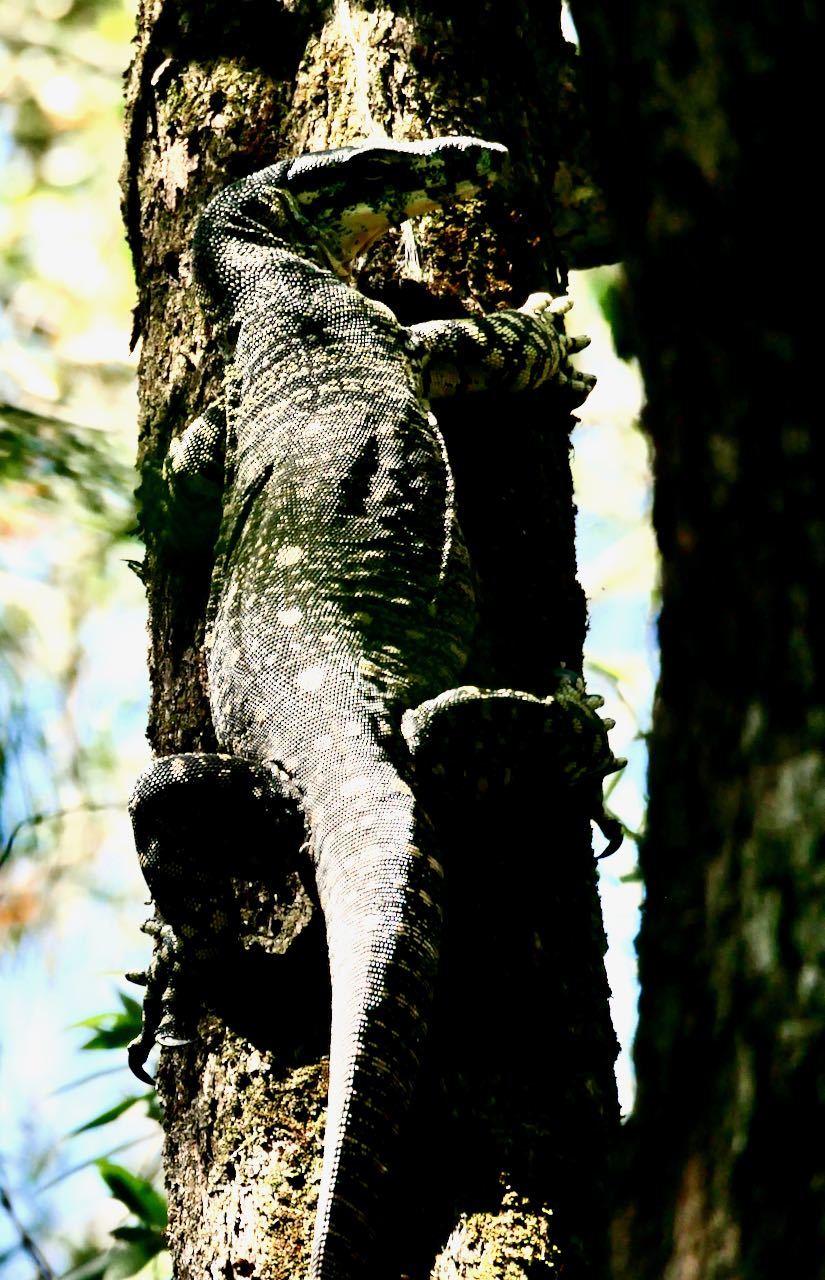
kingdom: Animalia
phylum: Chordata
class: Squamata
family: Varanidae
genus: Varanus
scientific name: Varanus varius
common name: Lace monitor
